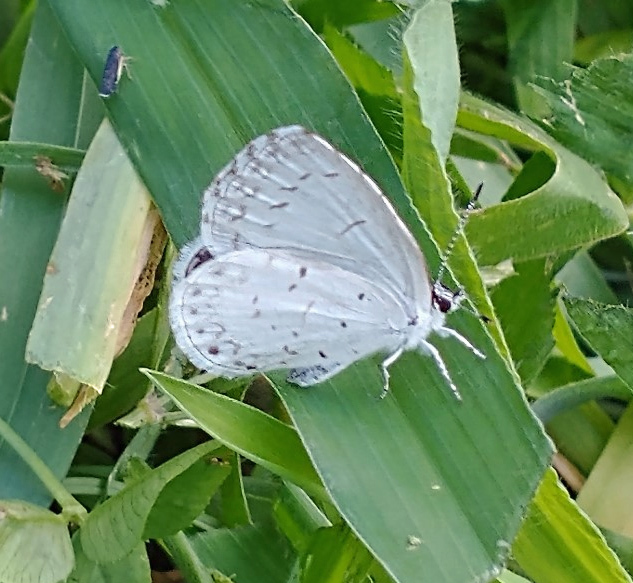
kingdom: Animalia
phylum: Arthropoda
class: Insecta
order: Lepidoptera
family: Lycaenidae
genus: Cyaniris
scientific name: Cyaniris neglecta
